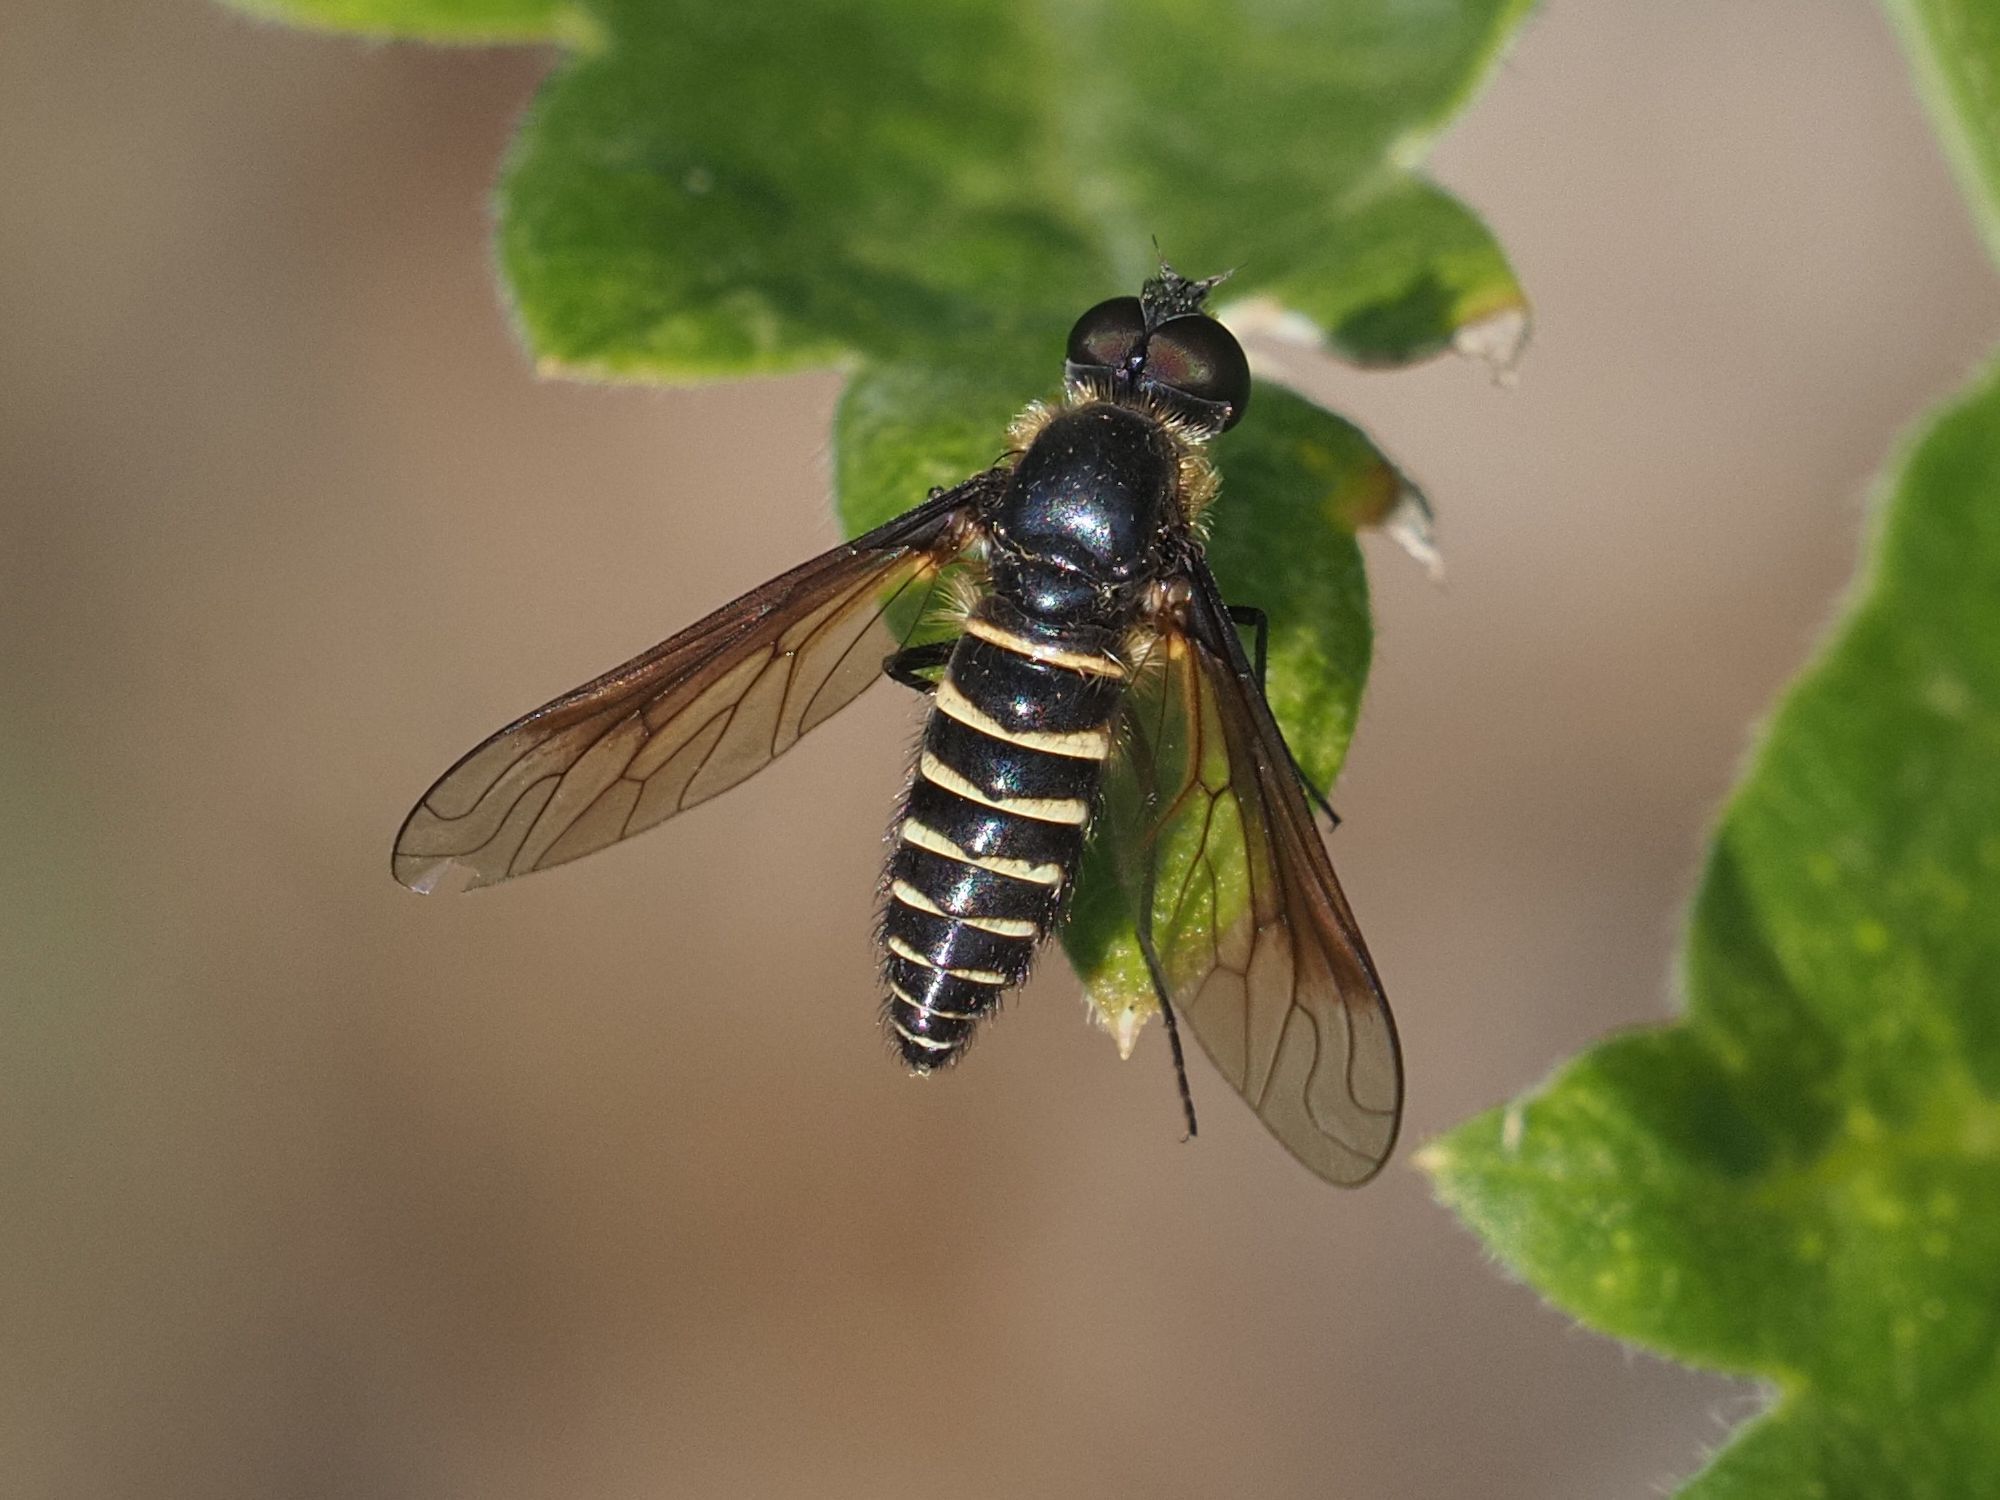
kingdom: Animalia
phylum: Arthropoda
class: Insecta
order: Diptera
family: Bombyliidae
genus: Lomatia
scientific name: Lomatia lateralis
